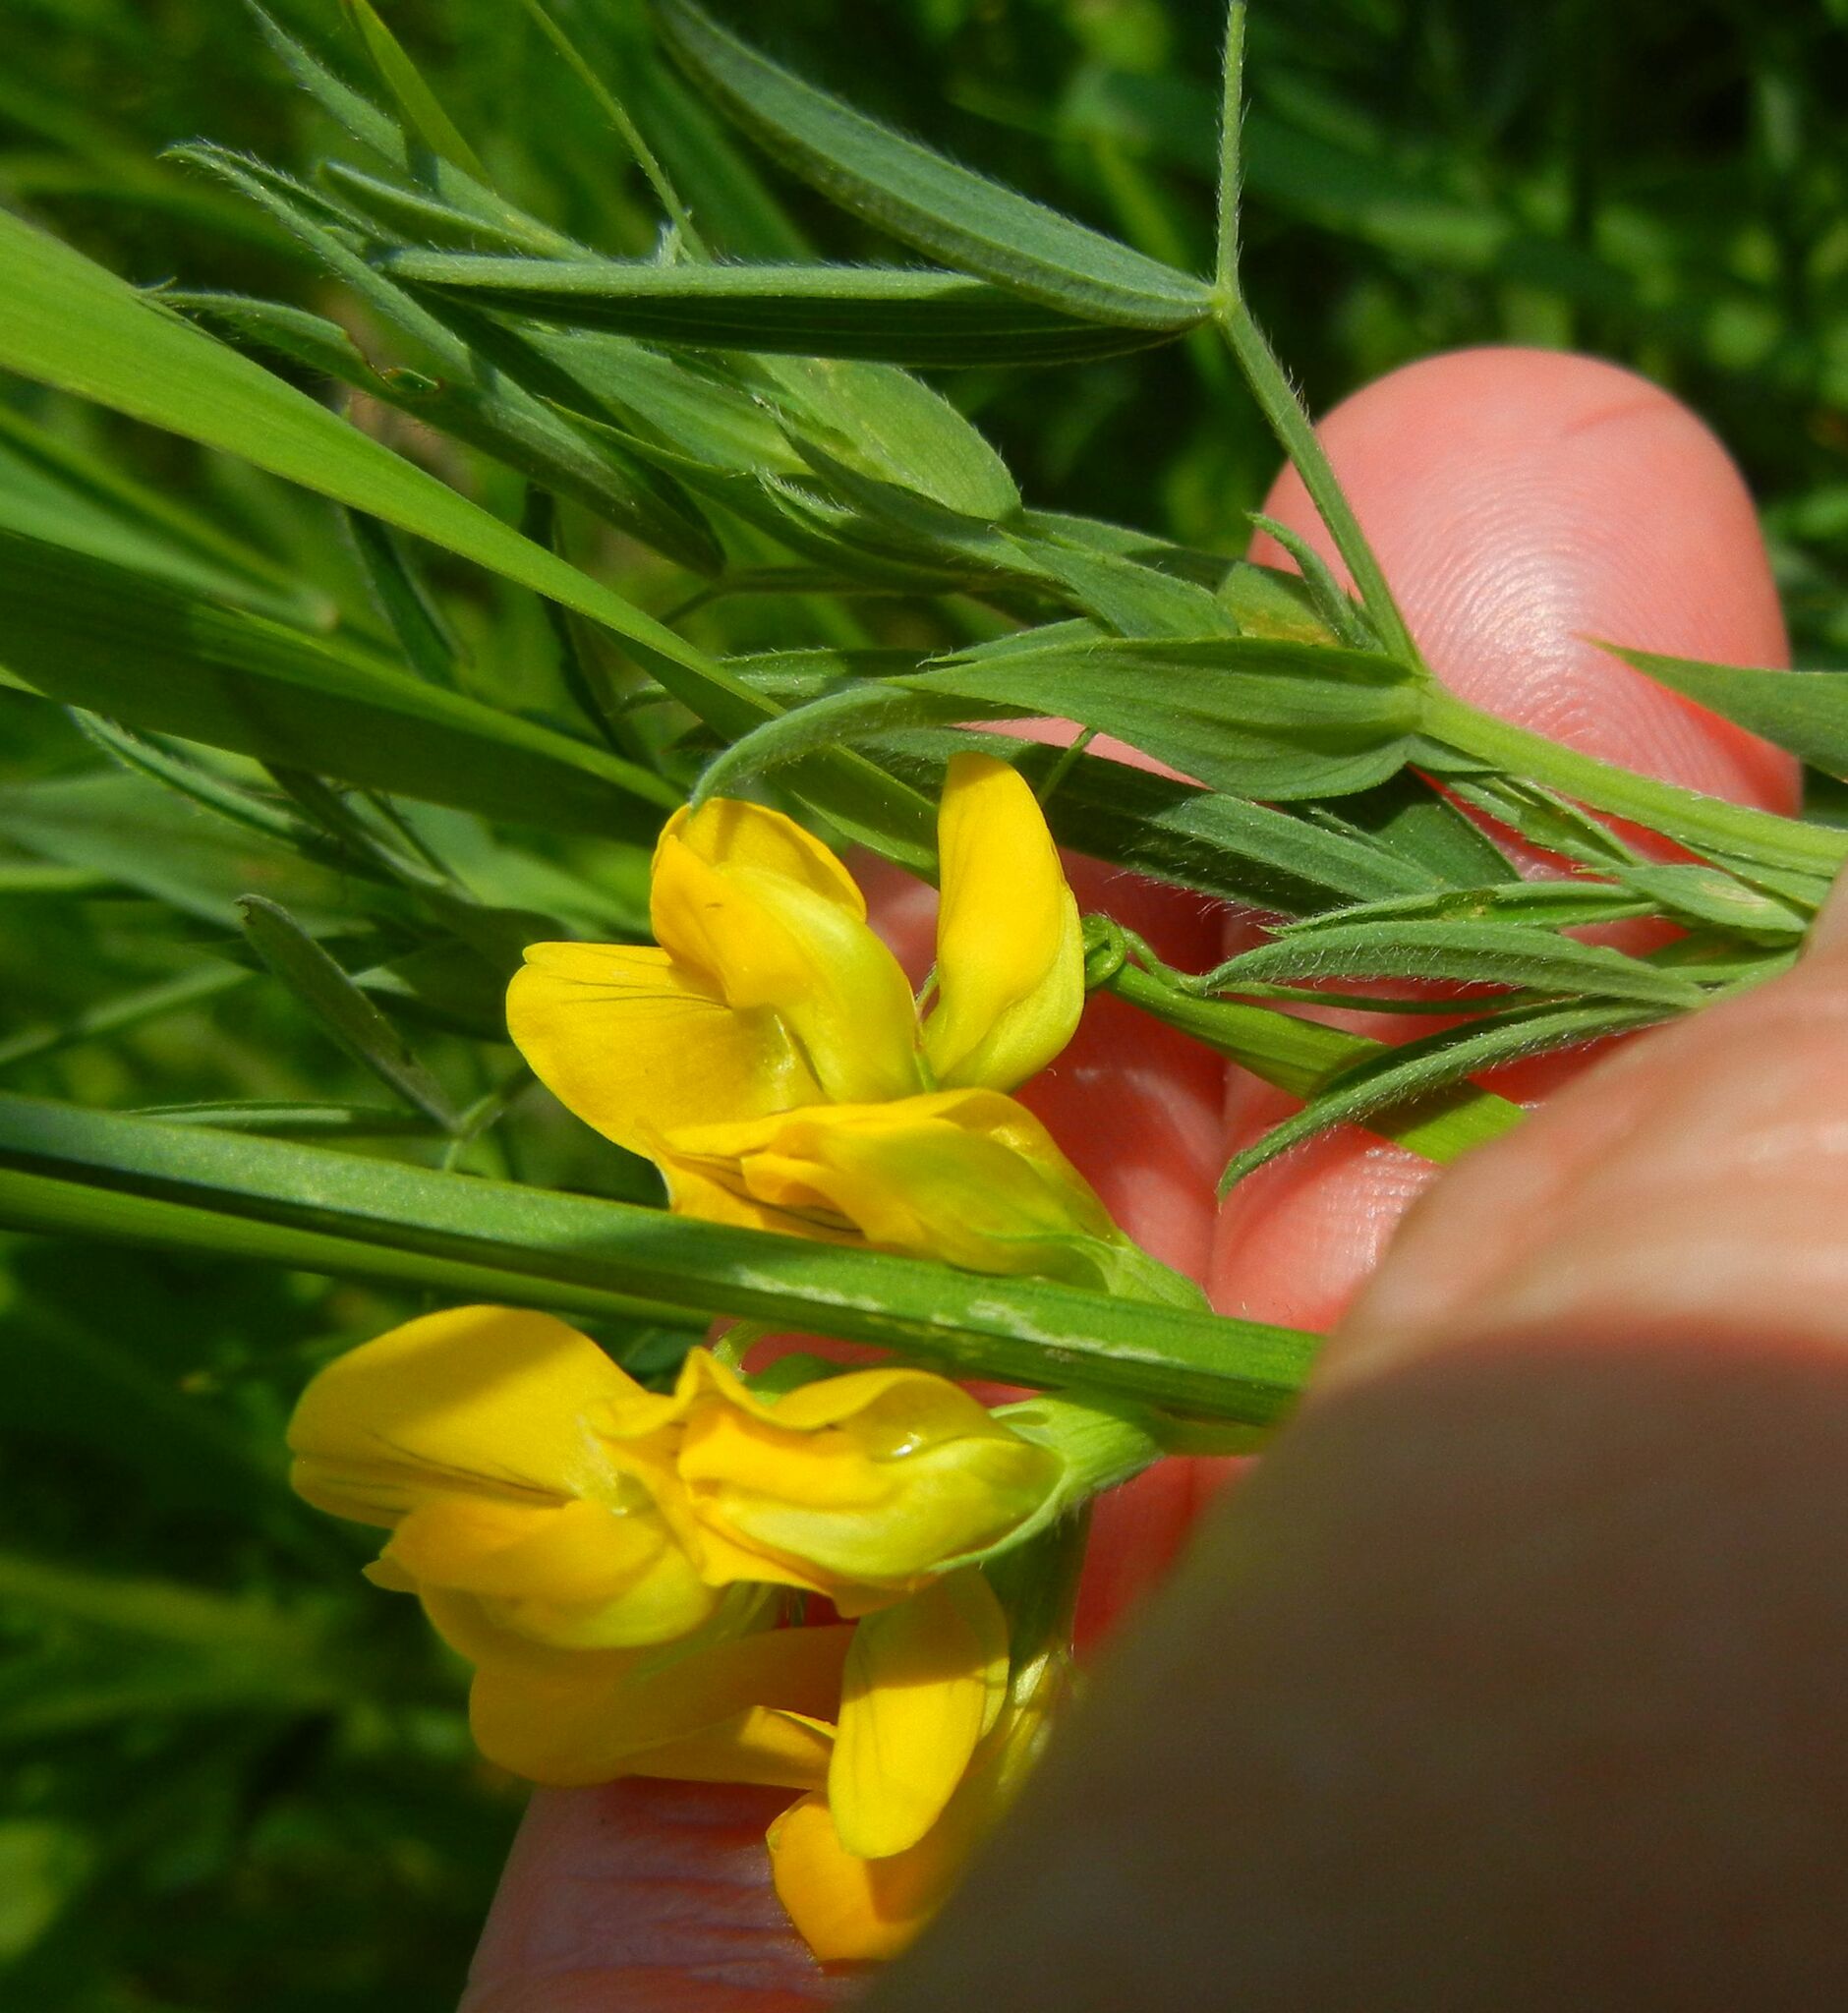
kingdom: Plantae
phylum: Tracheophyta
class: Magnoliopsida
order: Fabales
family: Fabaceae
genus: Lathyrus
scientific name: Lathyrus pratensis
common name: Meadow vetchling
